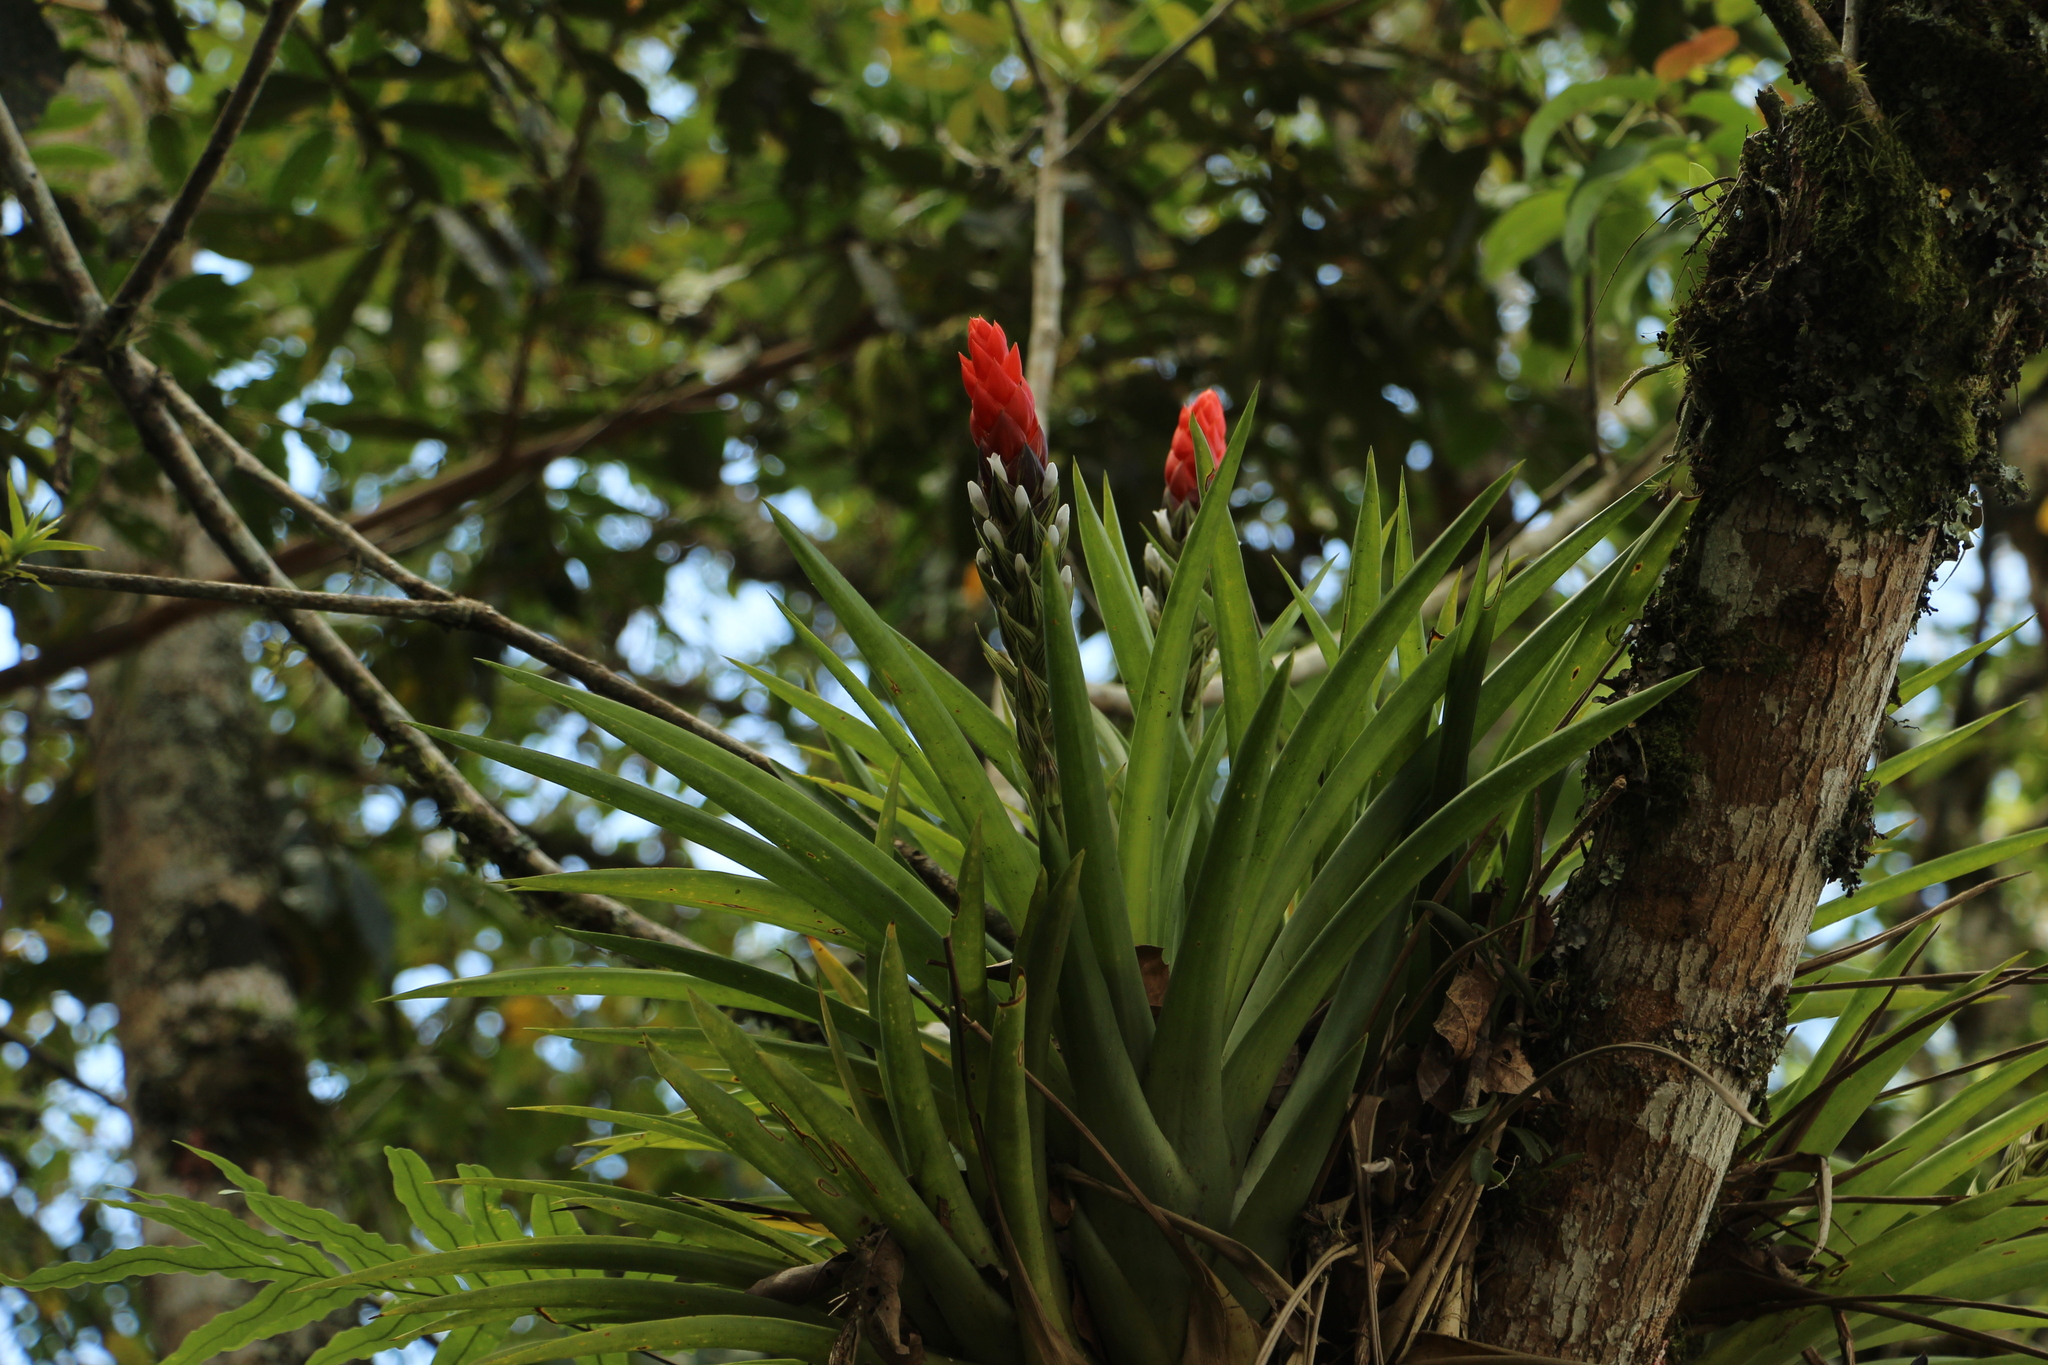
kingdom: Plantae
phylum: Tracheophyta
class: Liliopsida
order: Poales
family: Bromeliaceae
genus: Guzmania
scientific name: Guzmania monostachia
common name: West indian tufted airplant
